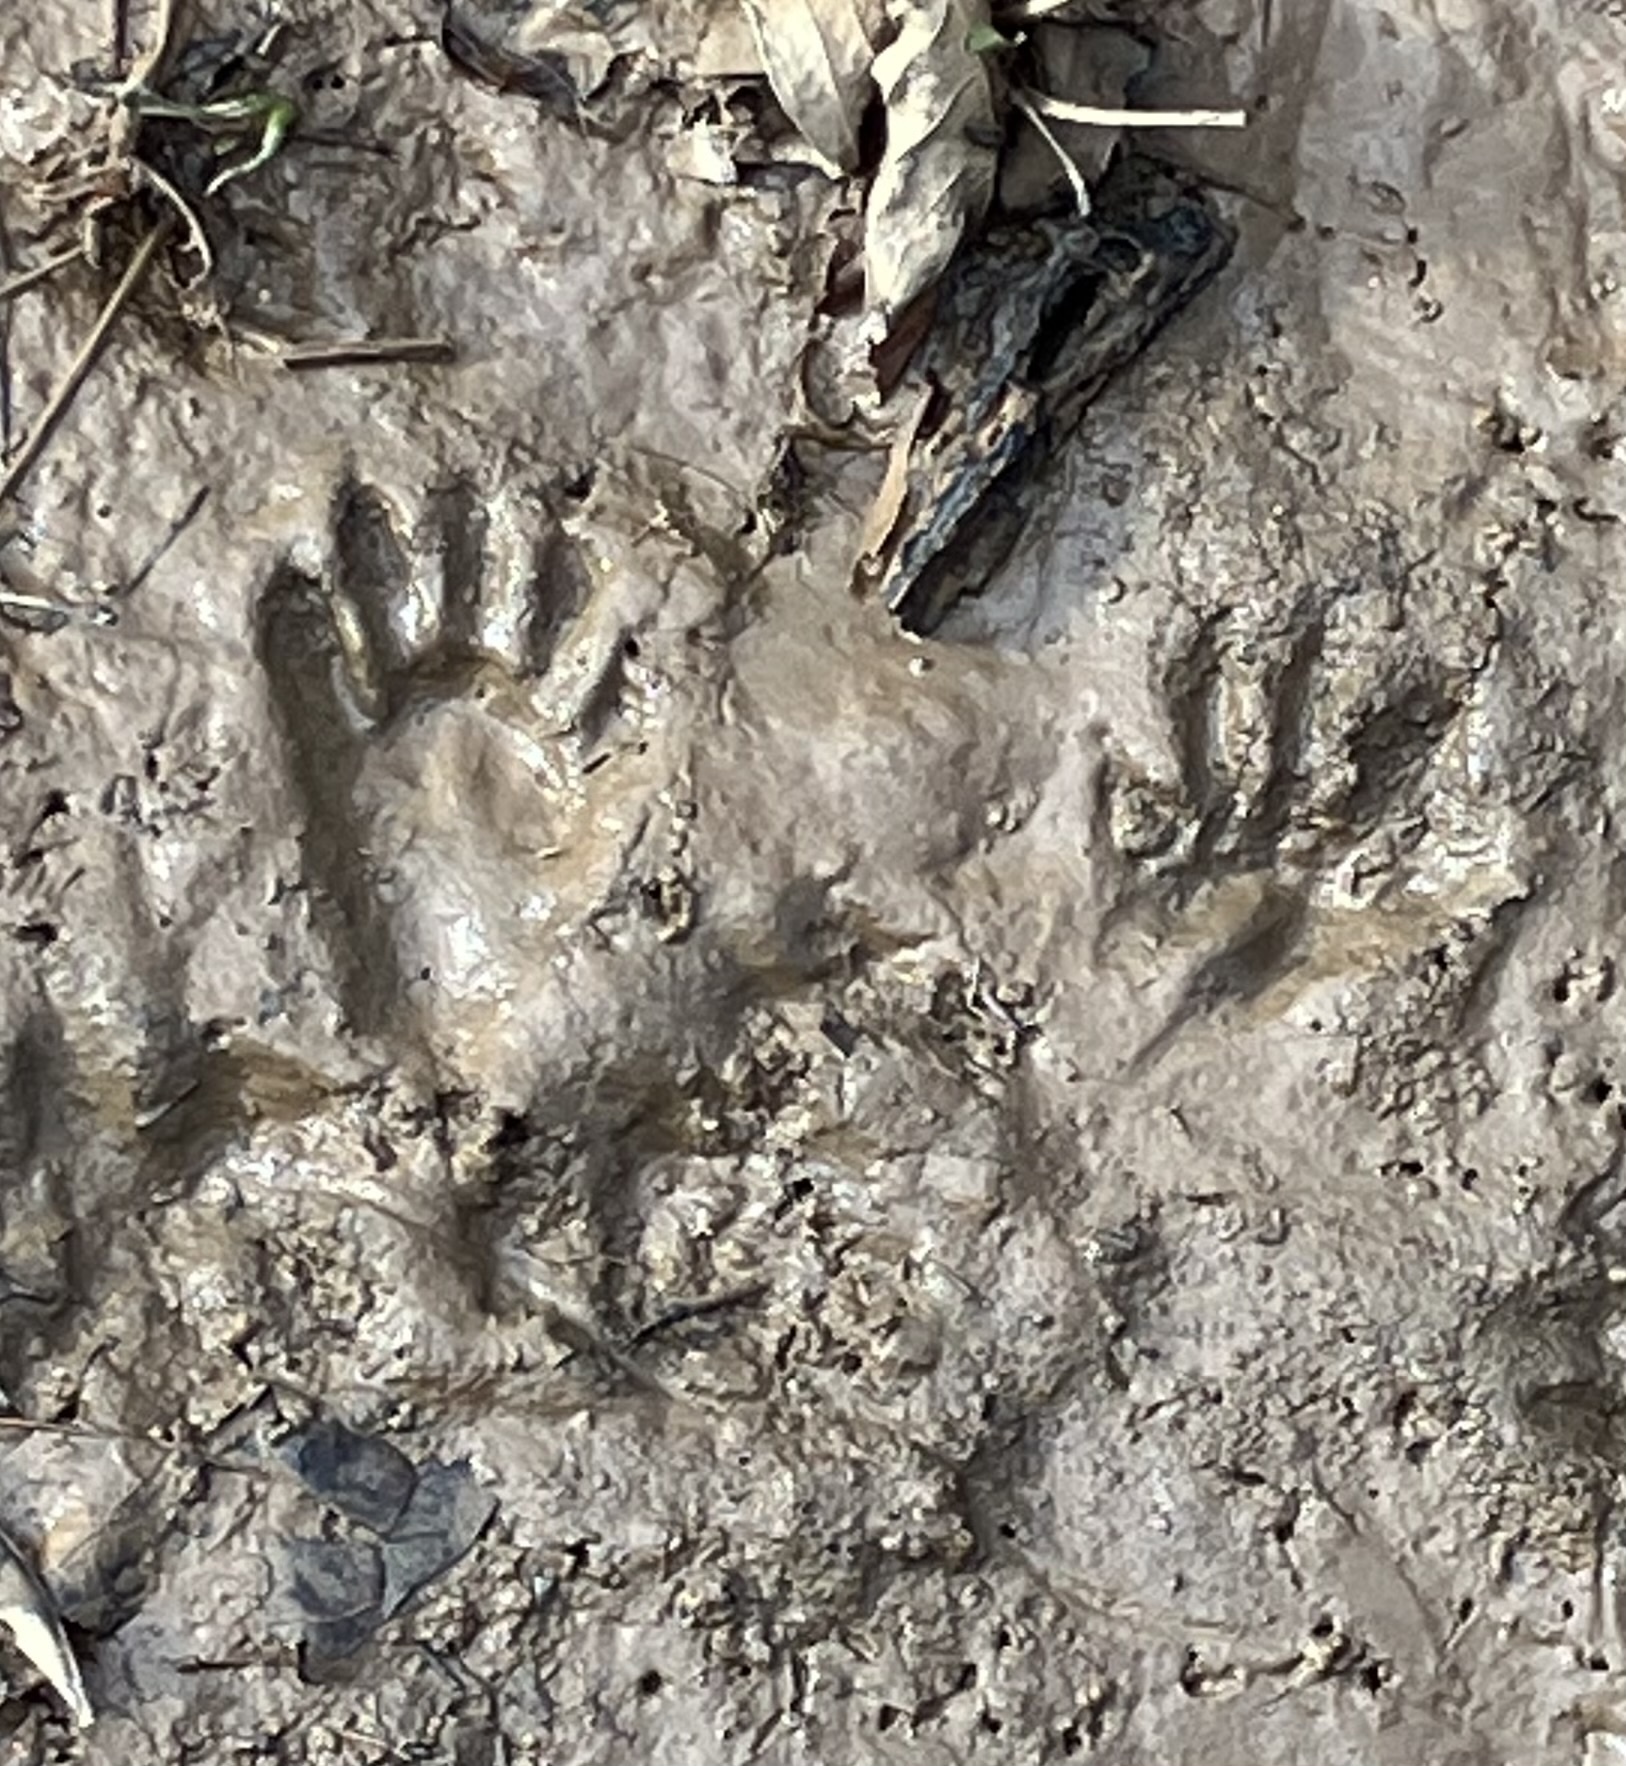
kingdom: Animalia
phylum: Chordata
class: Mammalia
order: Carnivora
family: Procyonidae
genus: Procyon
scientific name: Procyon lotor
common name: Raccoon
